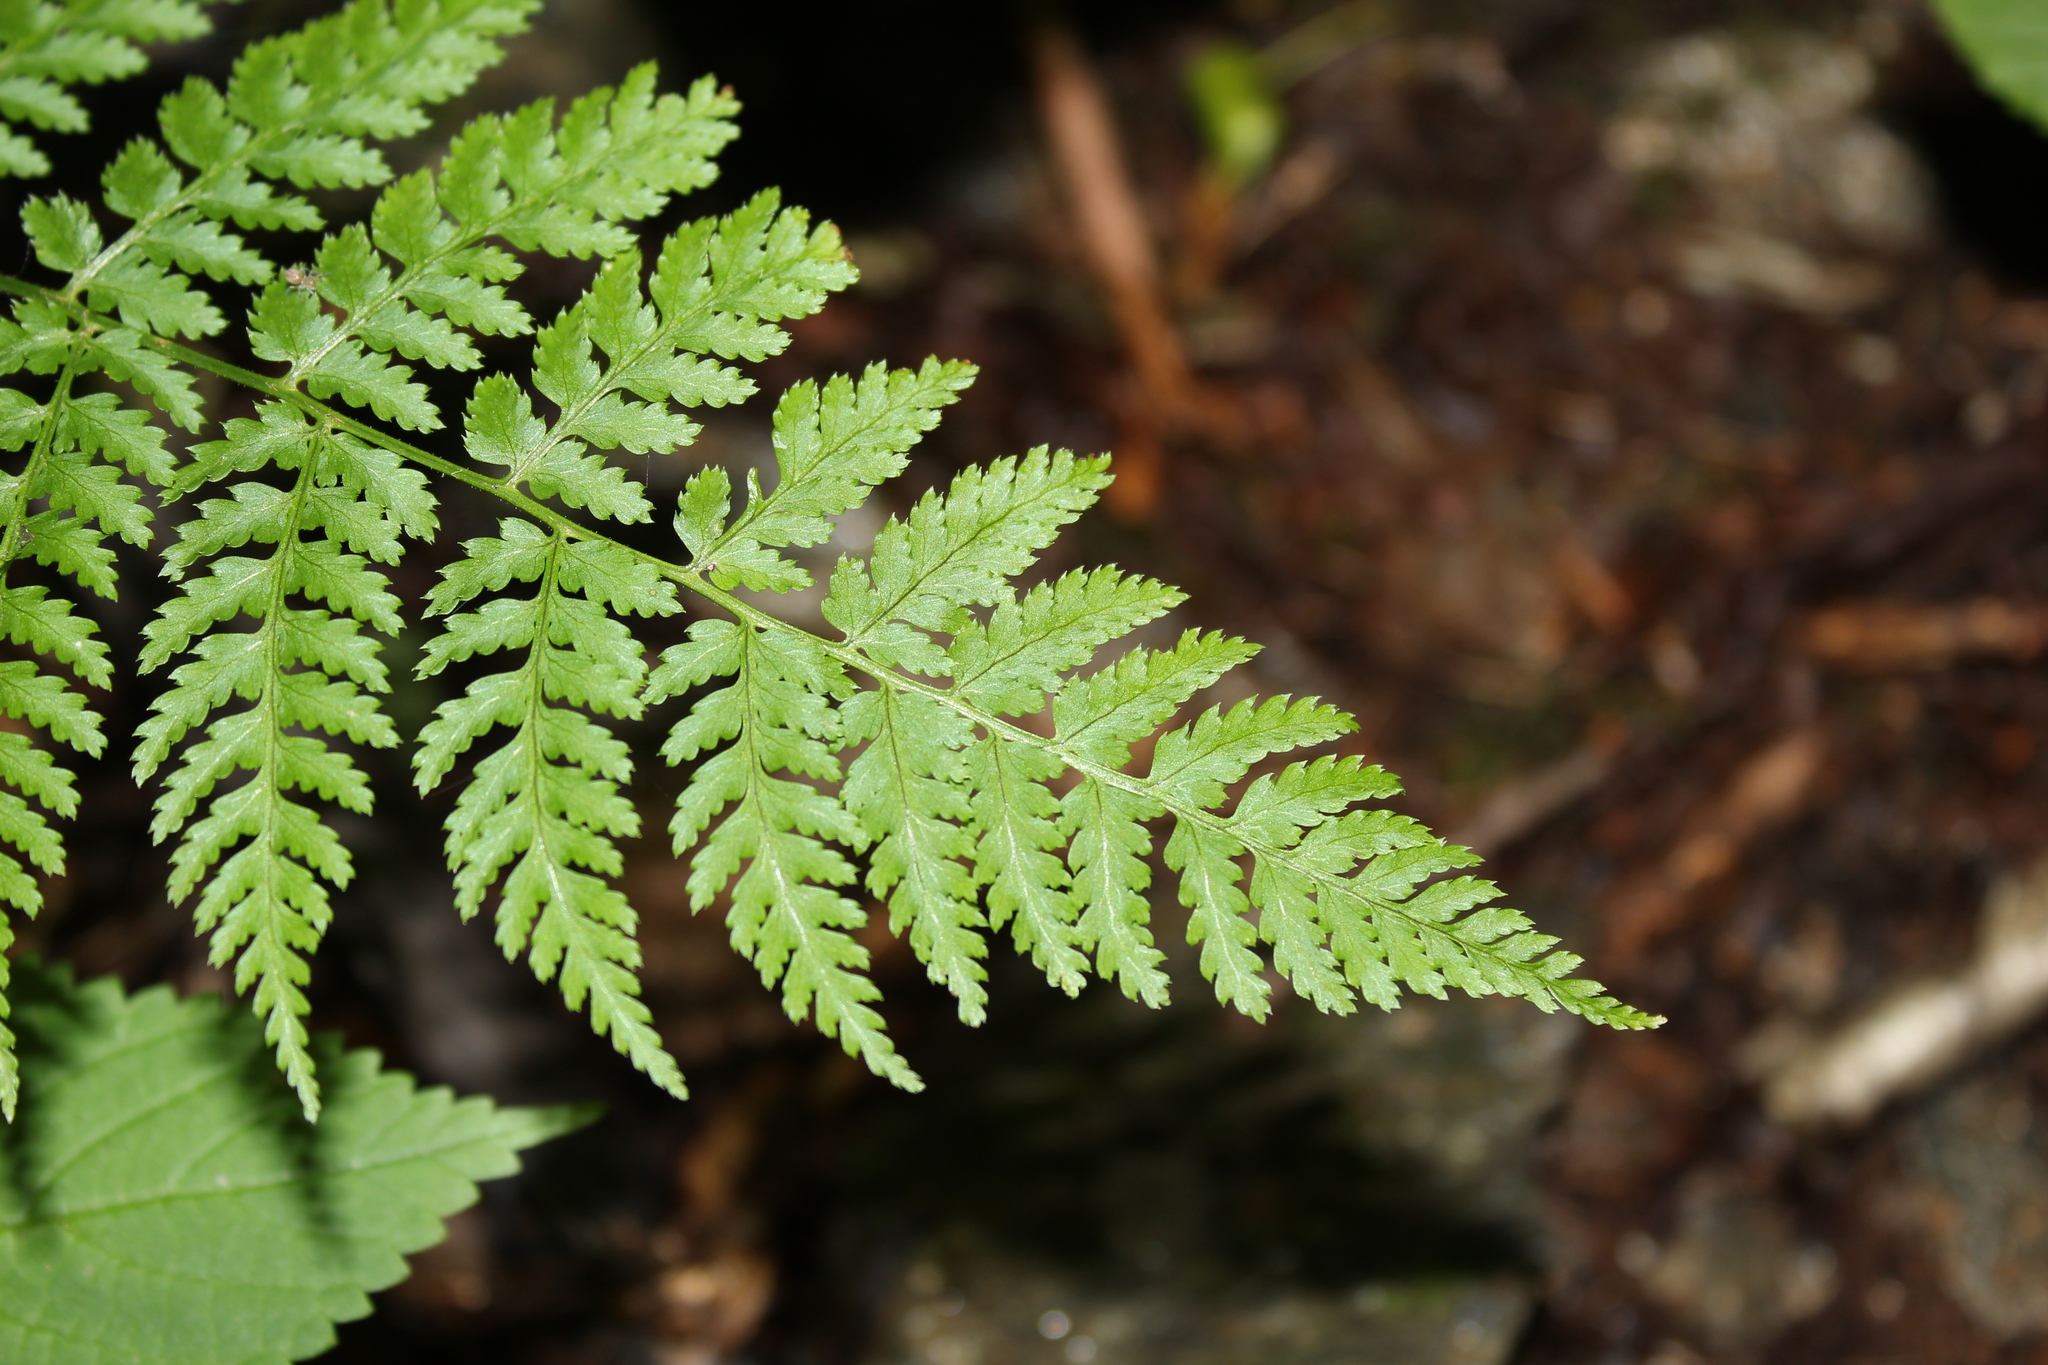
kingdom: Plantae
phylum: Tracheophyta
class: Polypodiopsida
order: Polypodiales
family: Dryopteridaceae
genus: Dryopteris
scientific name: Dryopteris intermedia
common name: Evergreen wood fern
